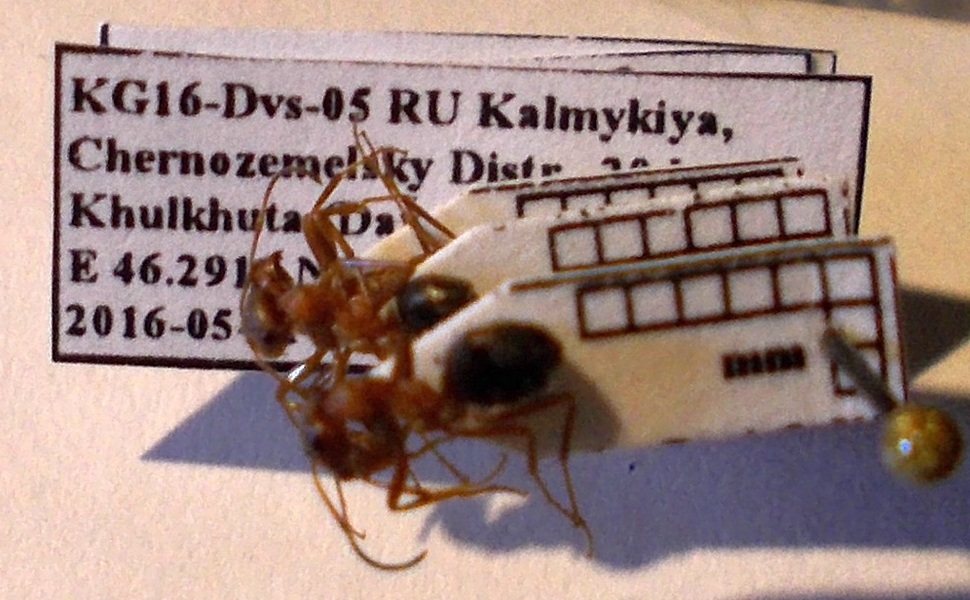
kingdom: Animalia
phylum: Arthropoda
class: Insecta
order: Hymenoptera
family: Formicidae
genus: Formica
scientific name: Formica subpilosa
